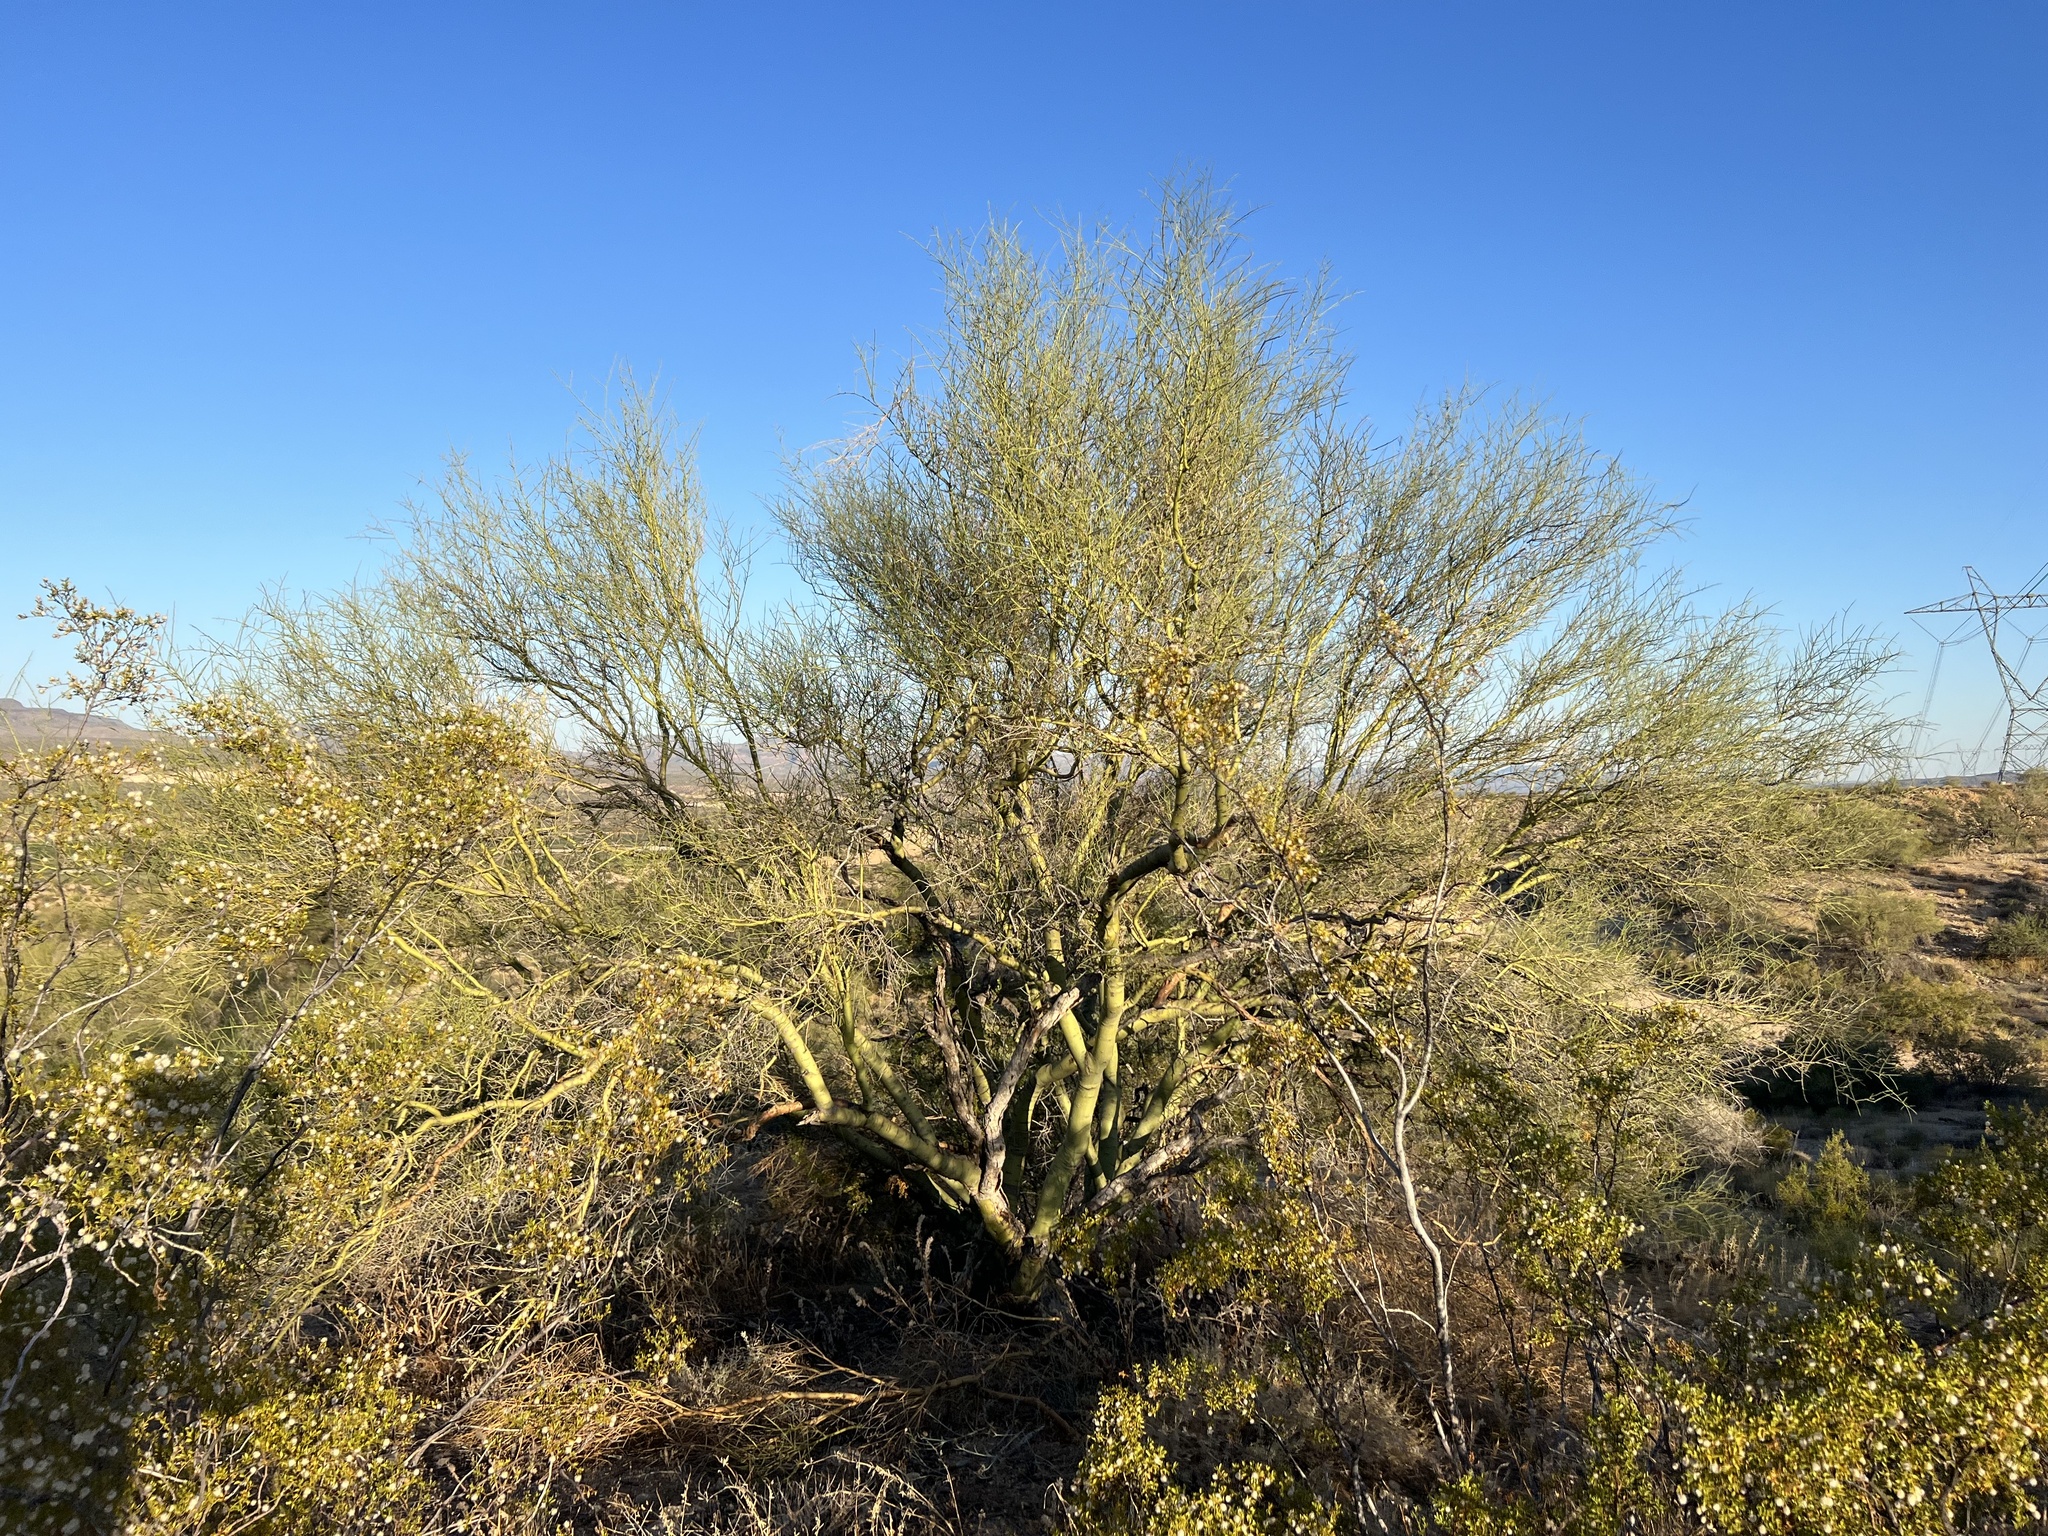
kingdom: Plantae
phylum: Tracheophyta
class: Magnoliopsida
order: Fabales
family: Fabaceae
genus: Parkinsonia
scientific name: Parkinsonia microphylla
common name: Yellow paloverde
